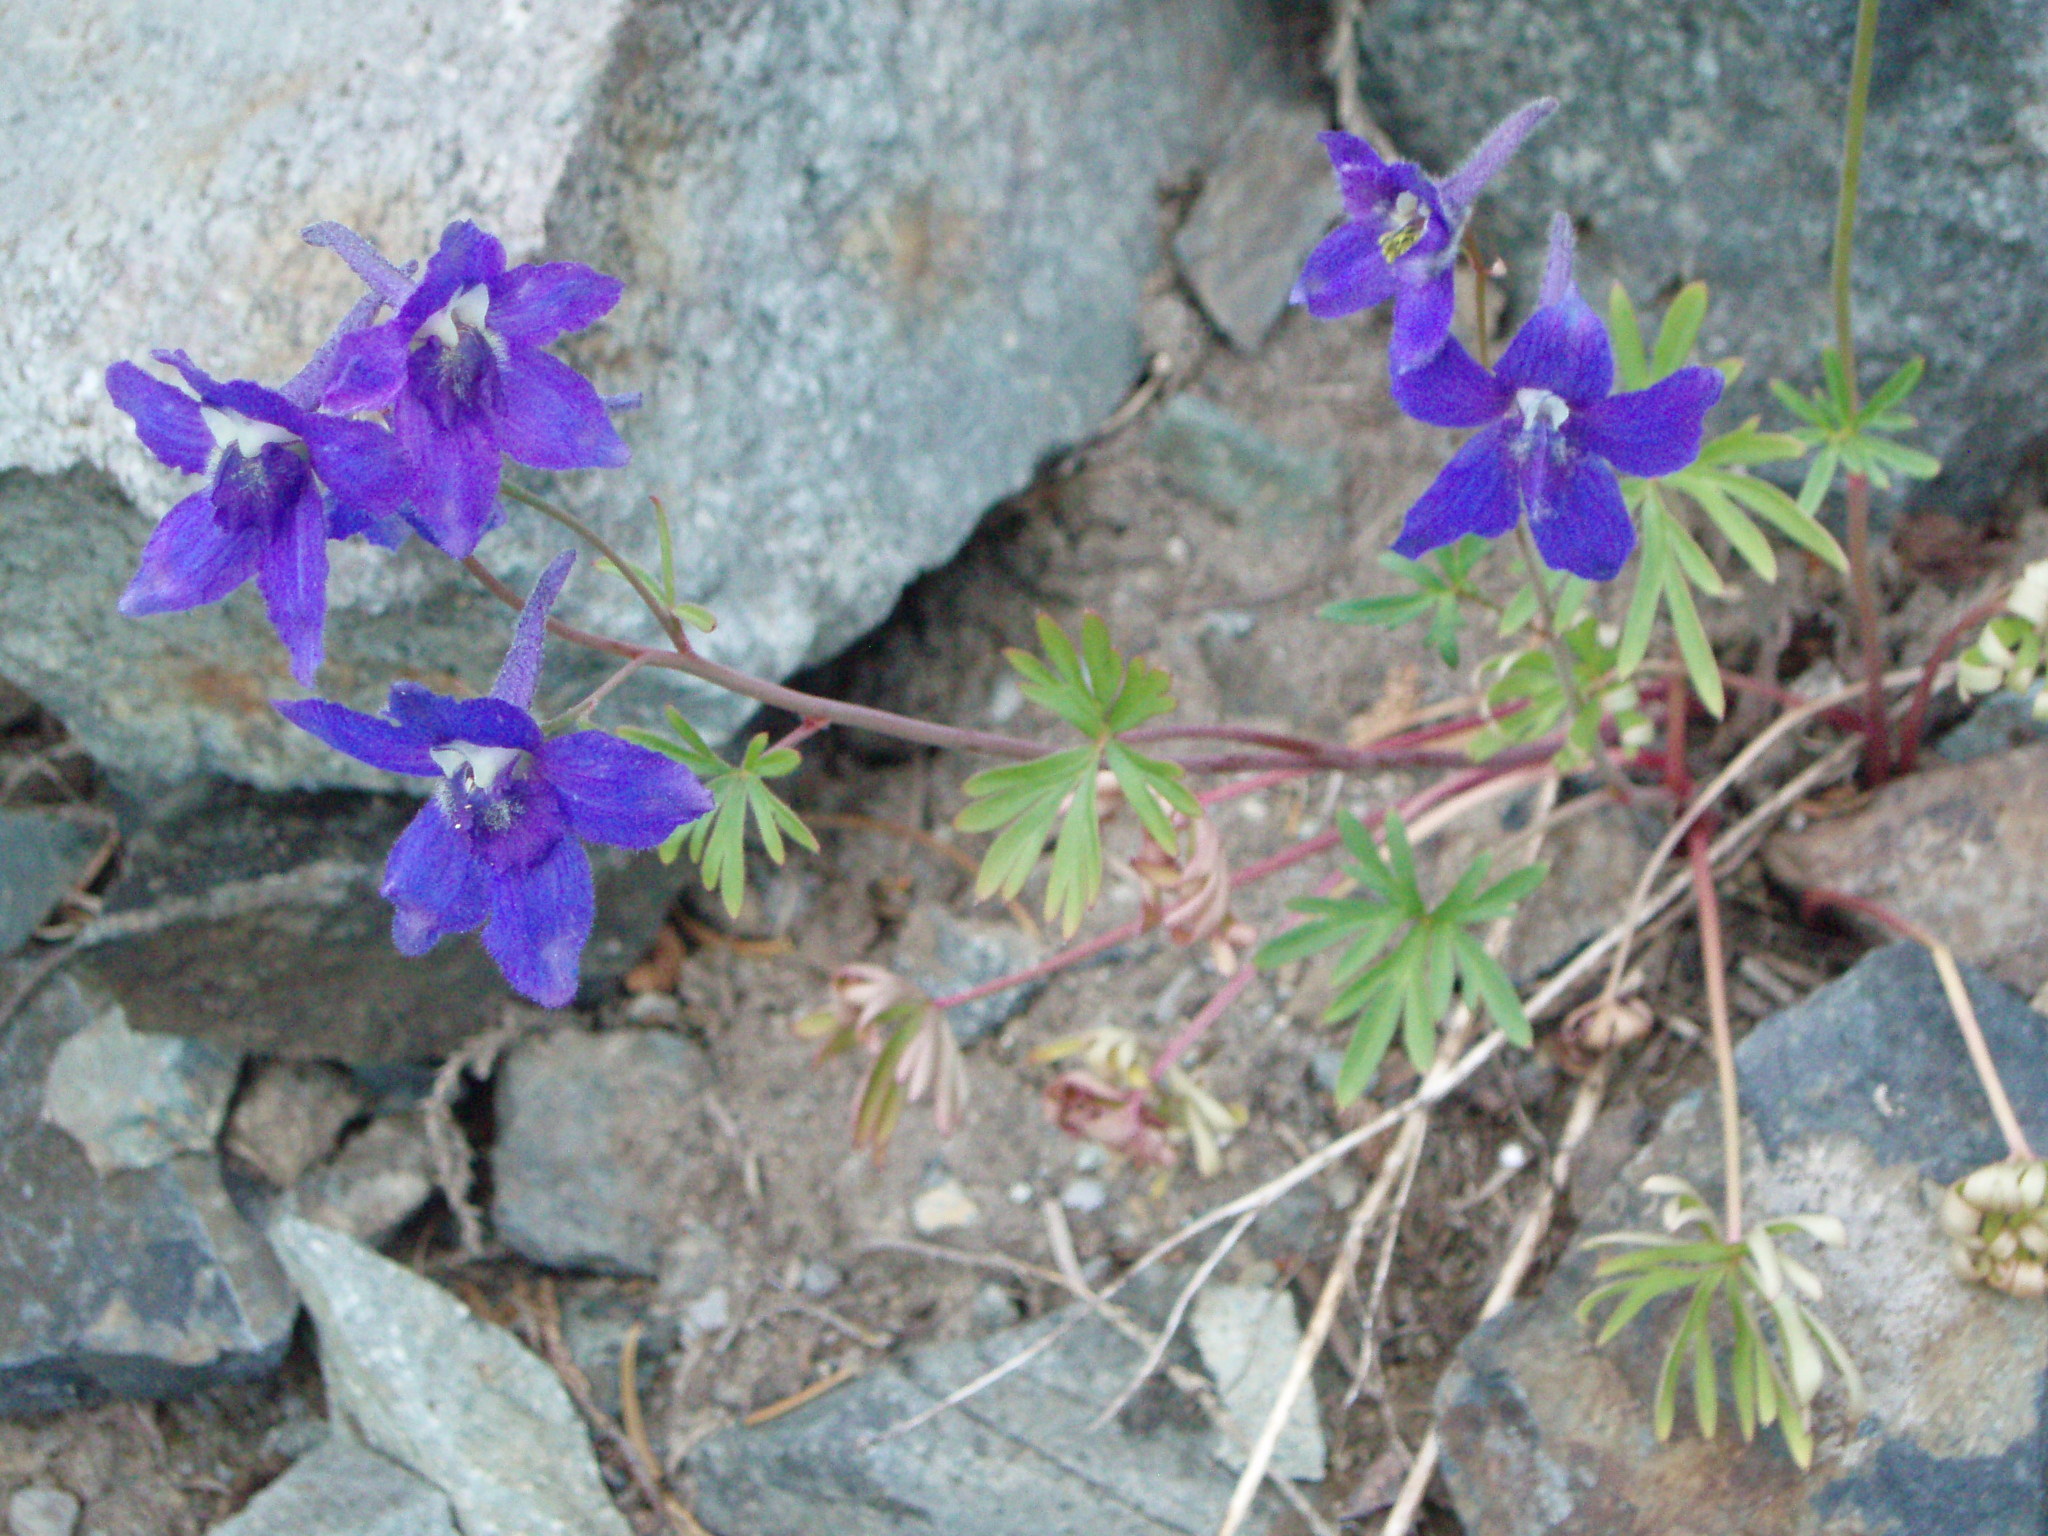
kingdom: Plantae
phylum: Tracheophyta
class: Magnoliopsida
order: Ranunculales
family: Ranunculaceae
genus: Delphinium
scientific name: Delphinium glareosum
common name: Olympic mountain larkspur
